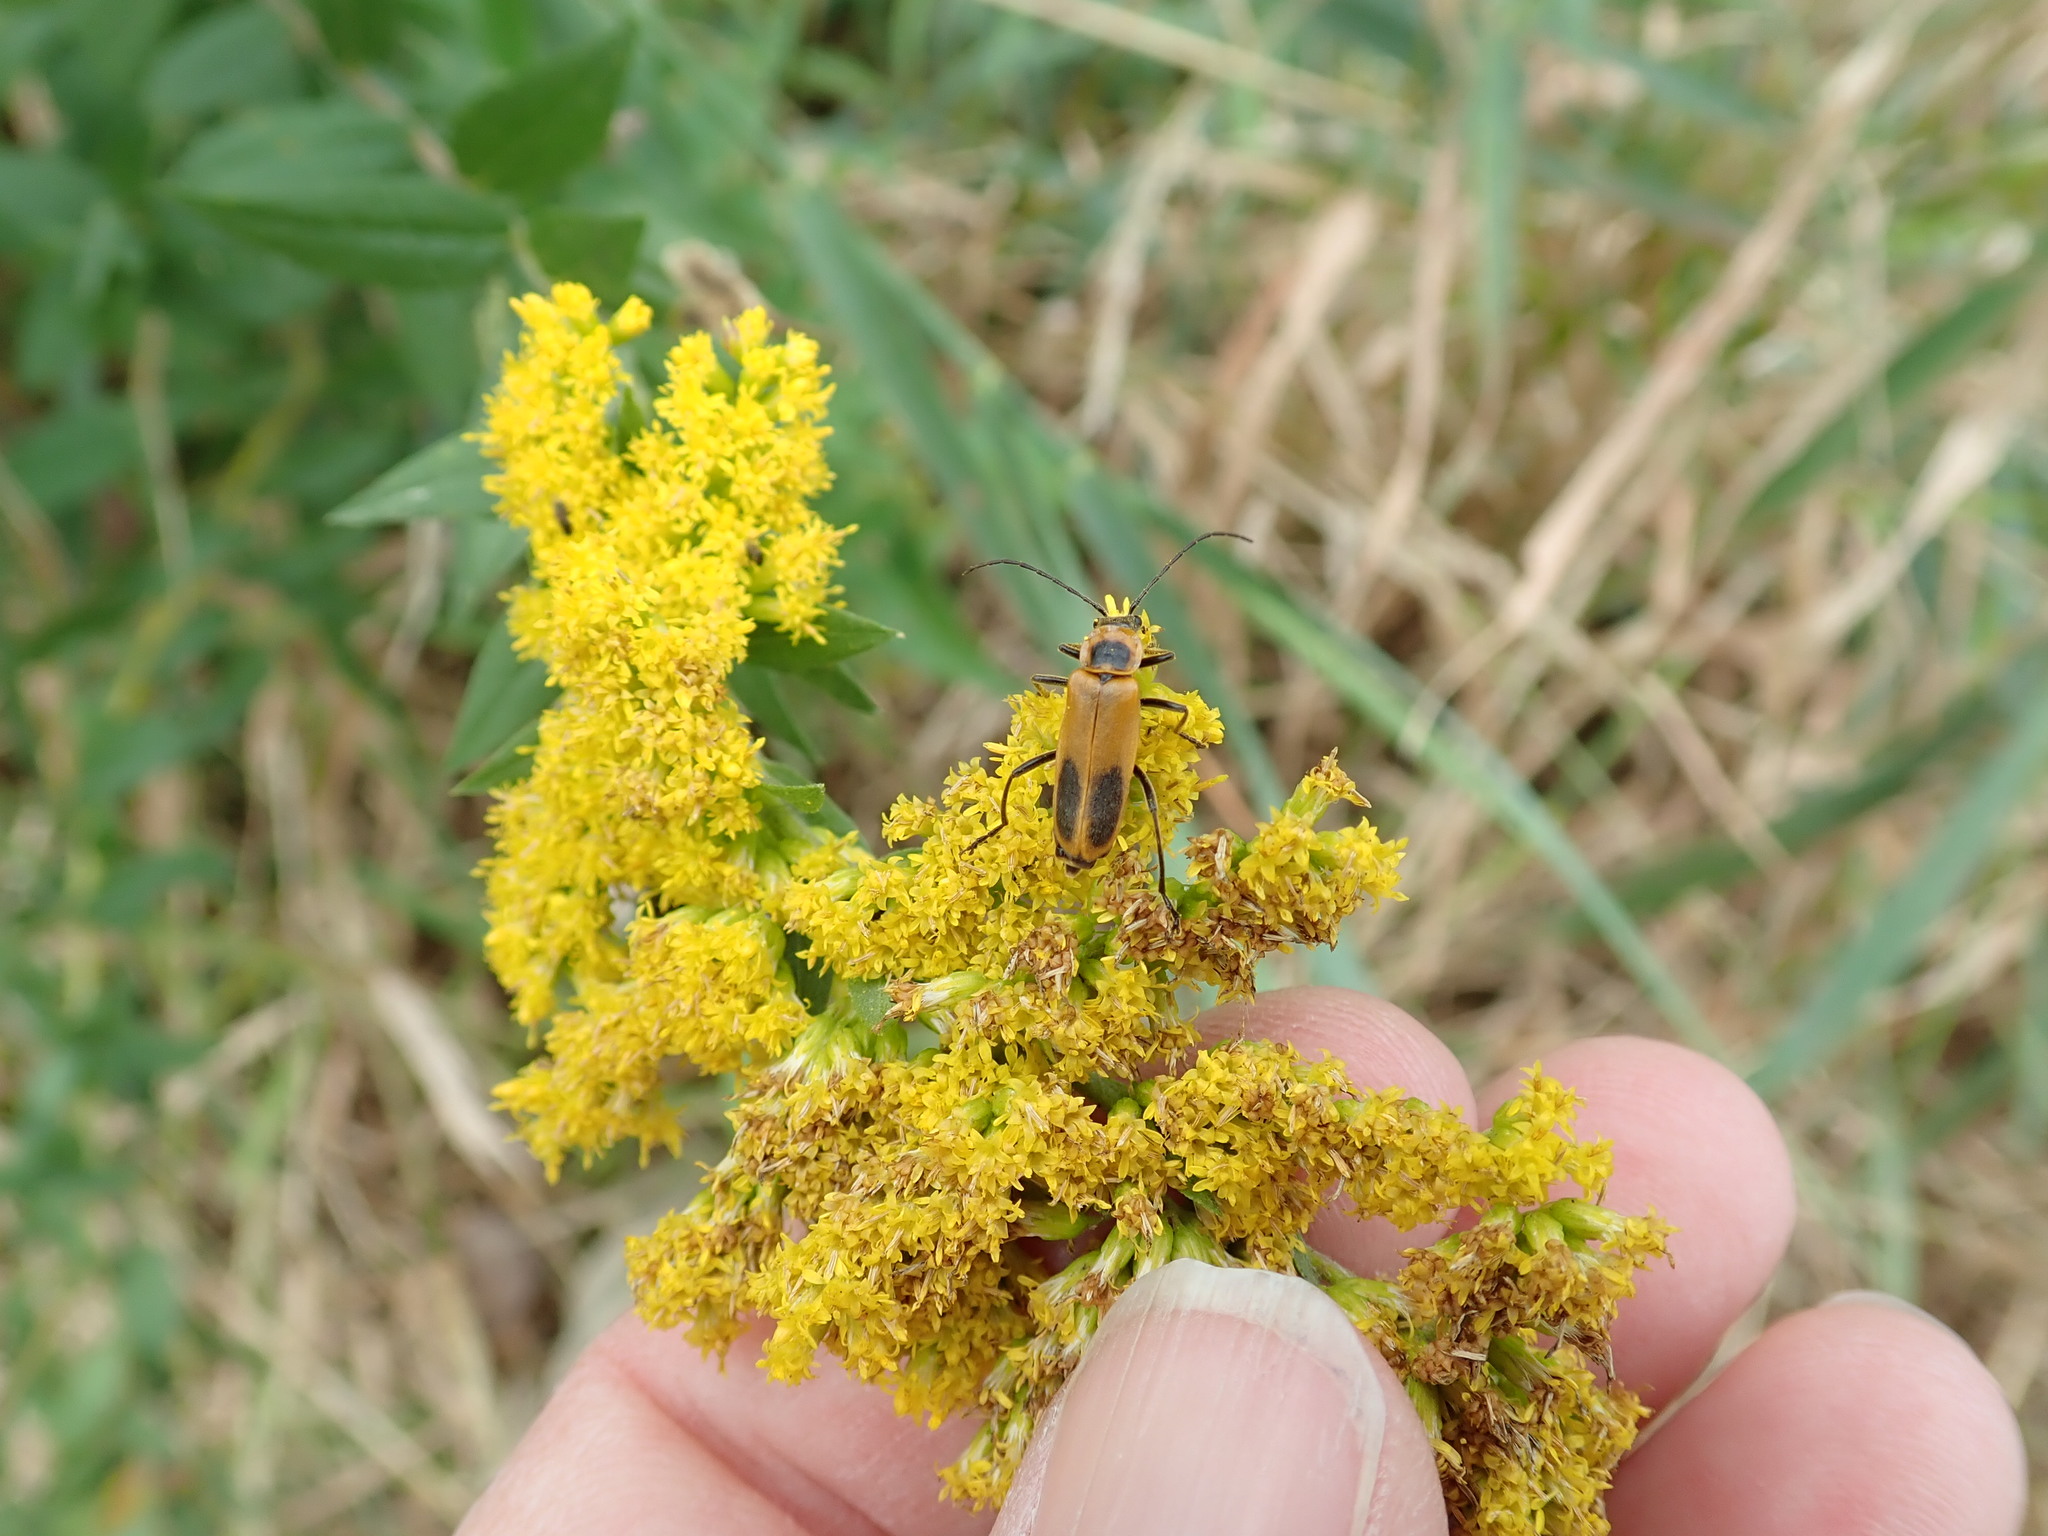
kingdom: Animalia
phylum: Arthropoda
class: Insecta
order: Coleoptera
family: Cantharidae
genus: Chauliognathus
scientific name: Chauliognathus pensylvanicus
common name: Goldenrod soldier beetle
